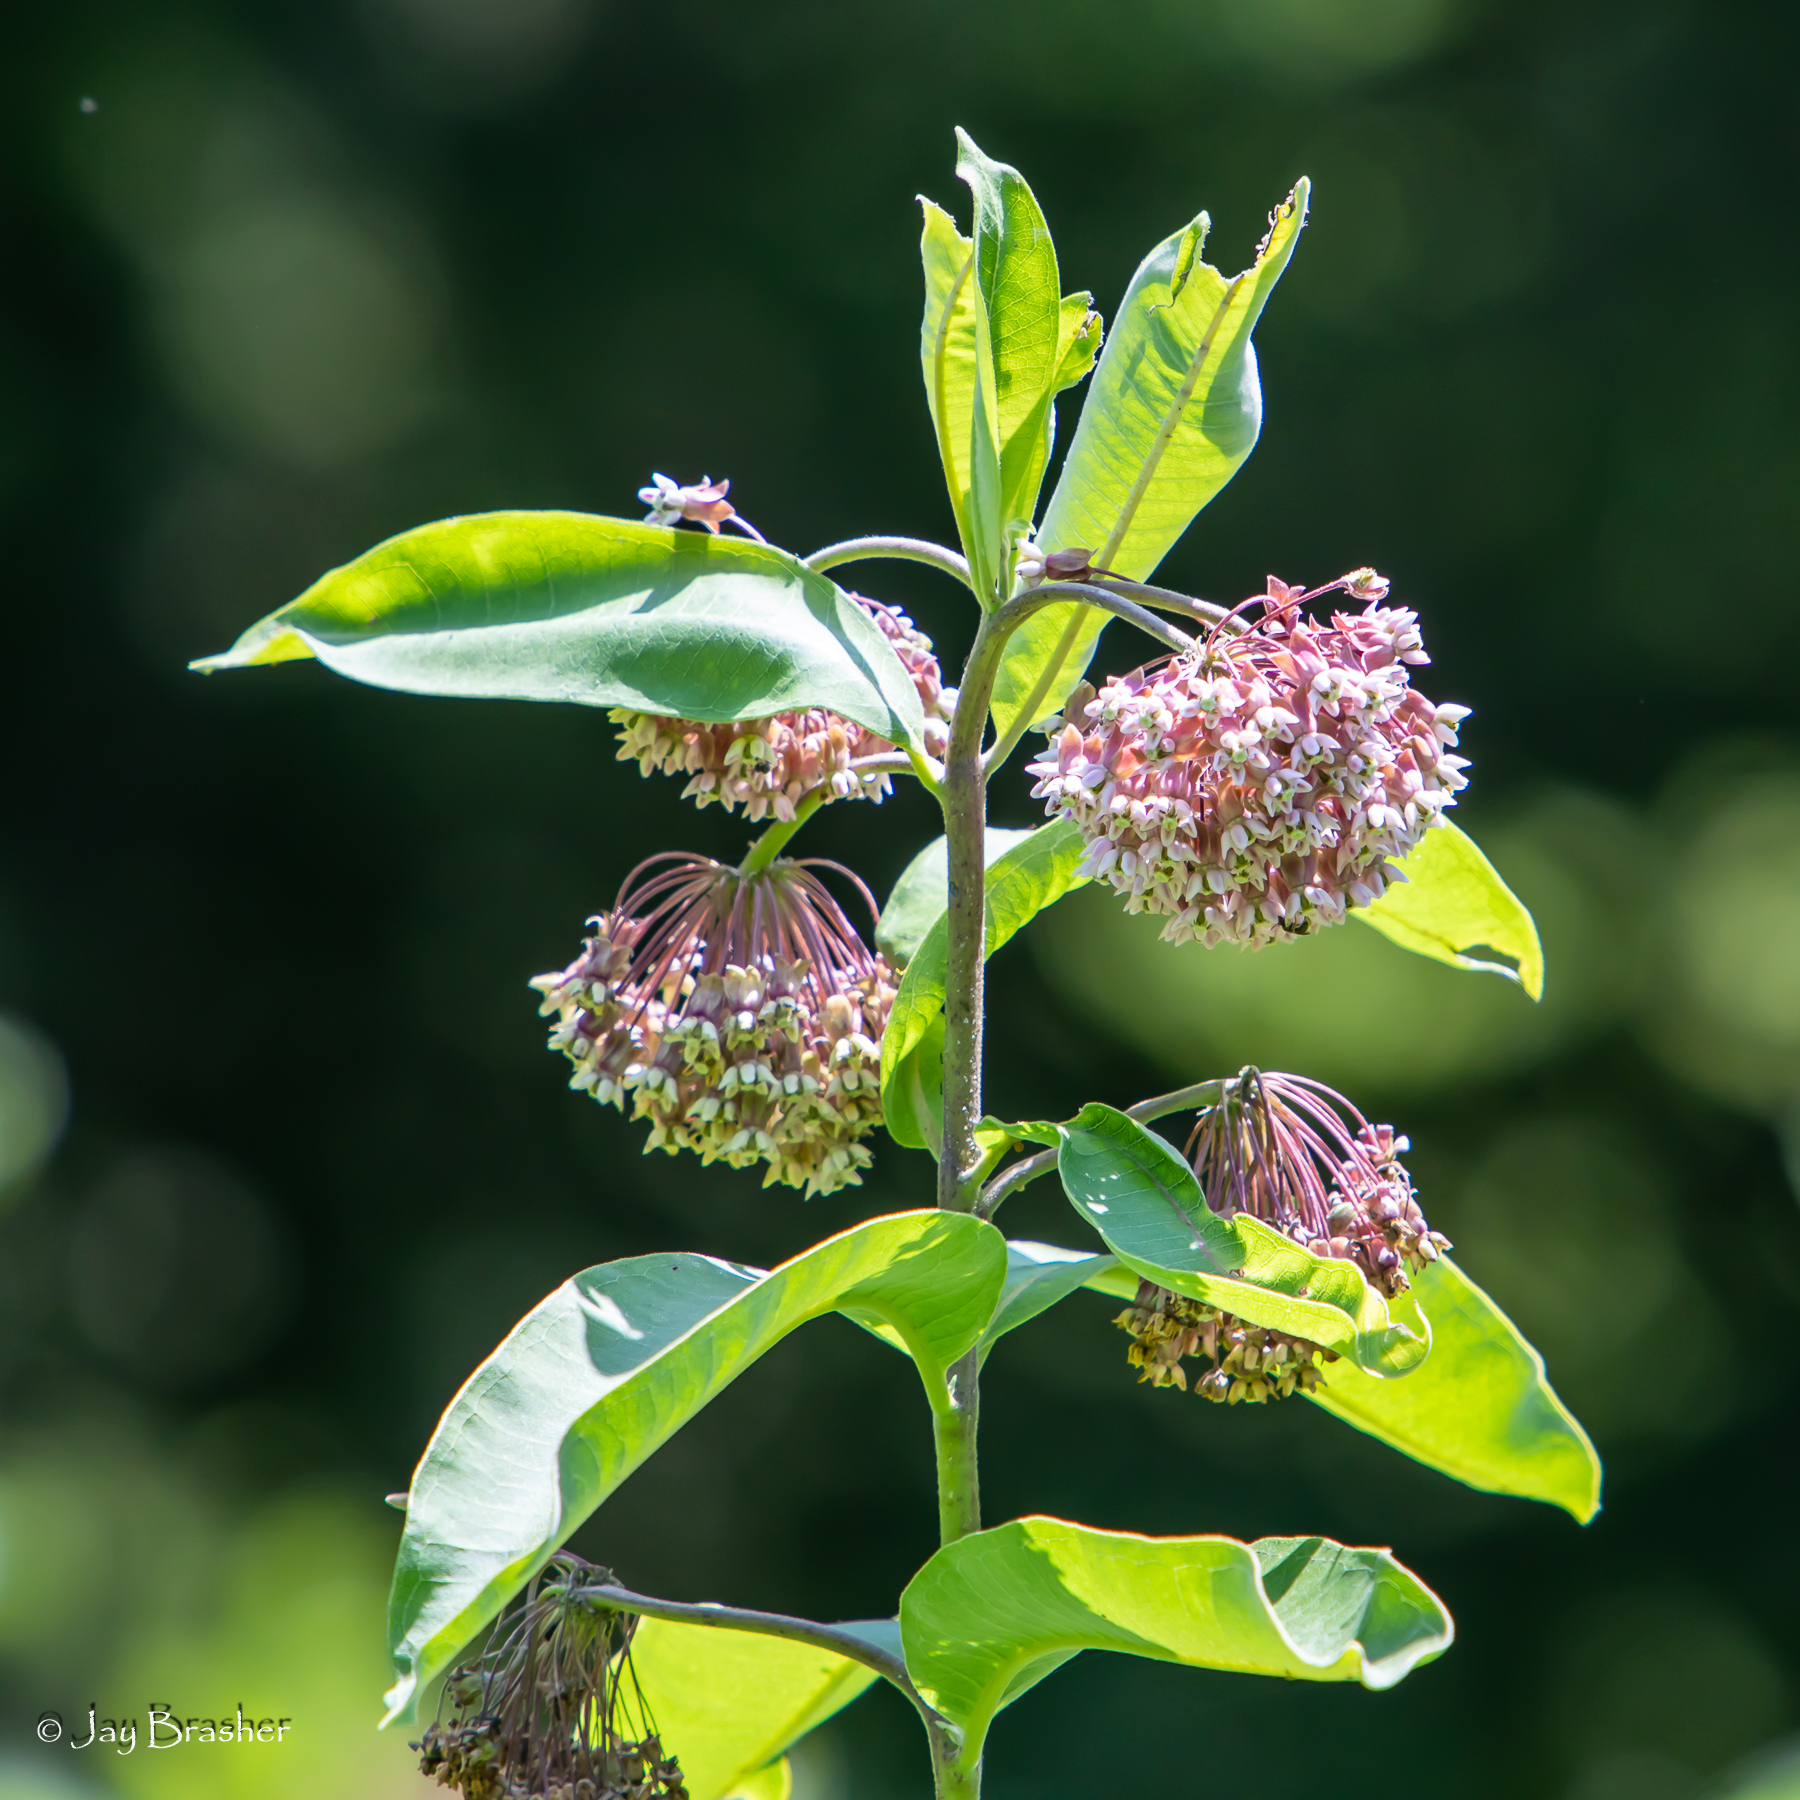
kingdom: Plantae
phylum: Tracheophyta
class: Magnoliopsida
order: Gentianales
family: Apocynaceae
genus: Asclepias
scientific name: Asclepias syriaca
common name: Common milkweed
